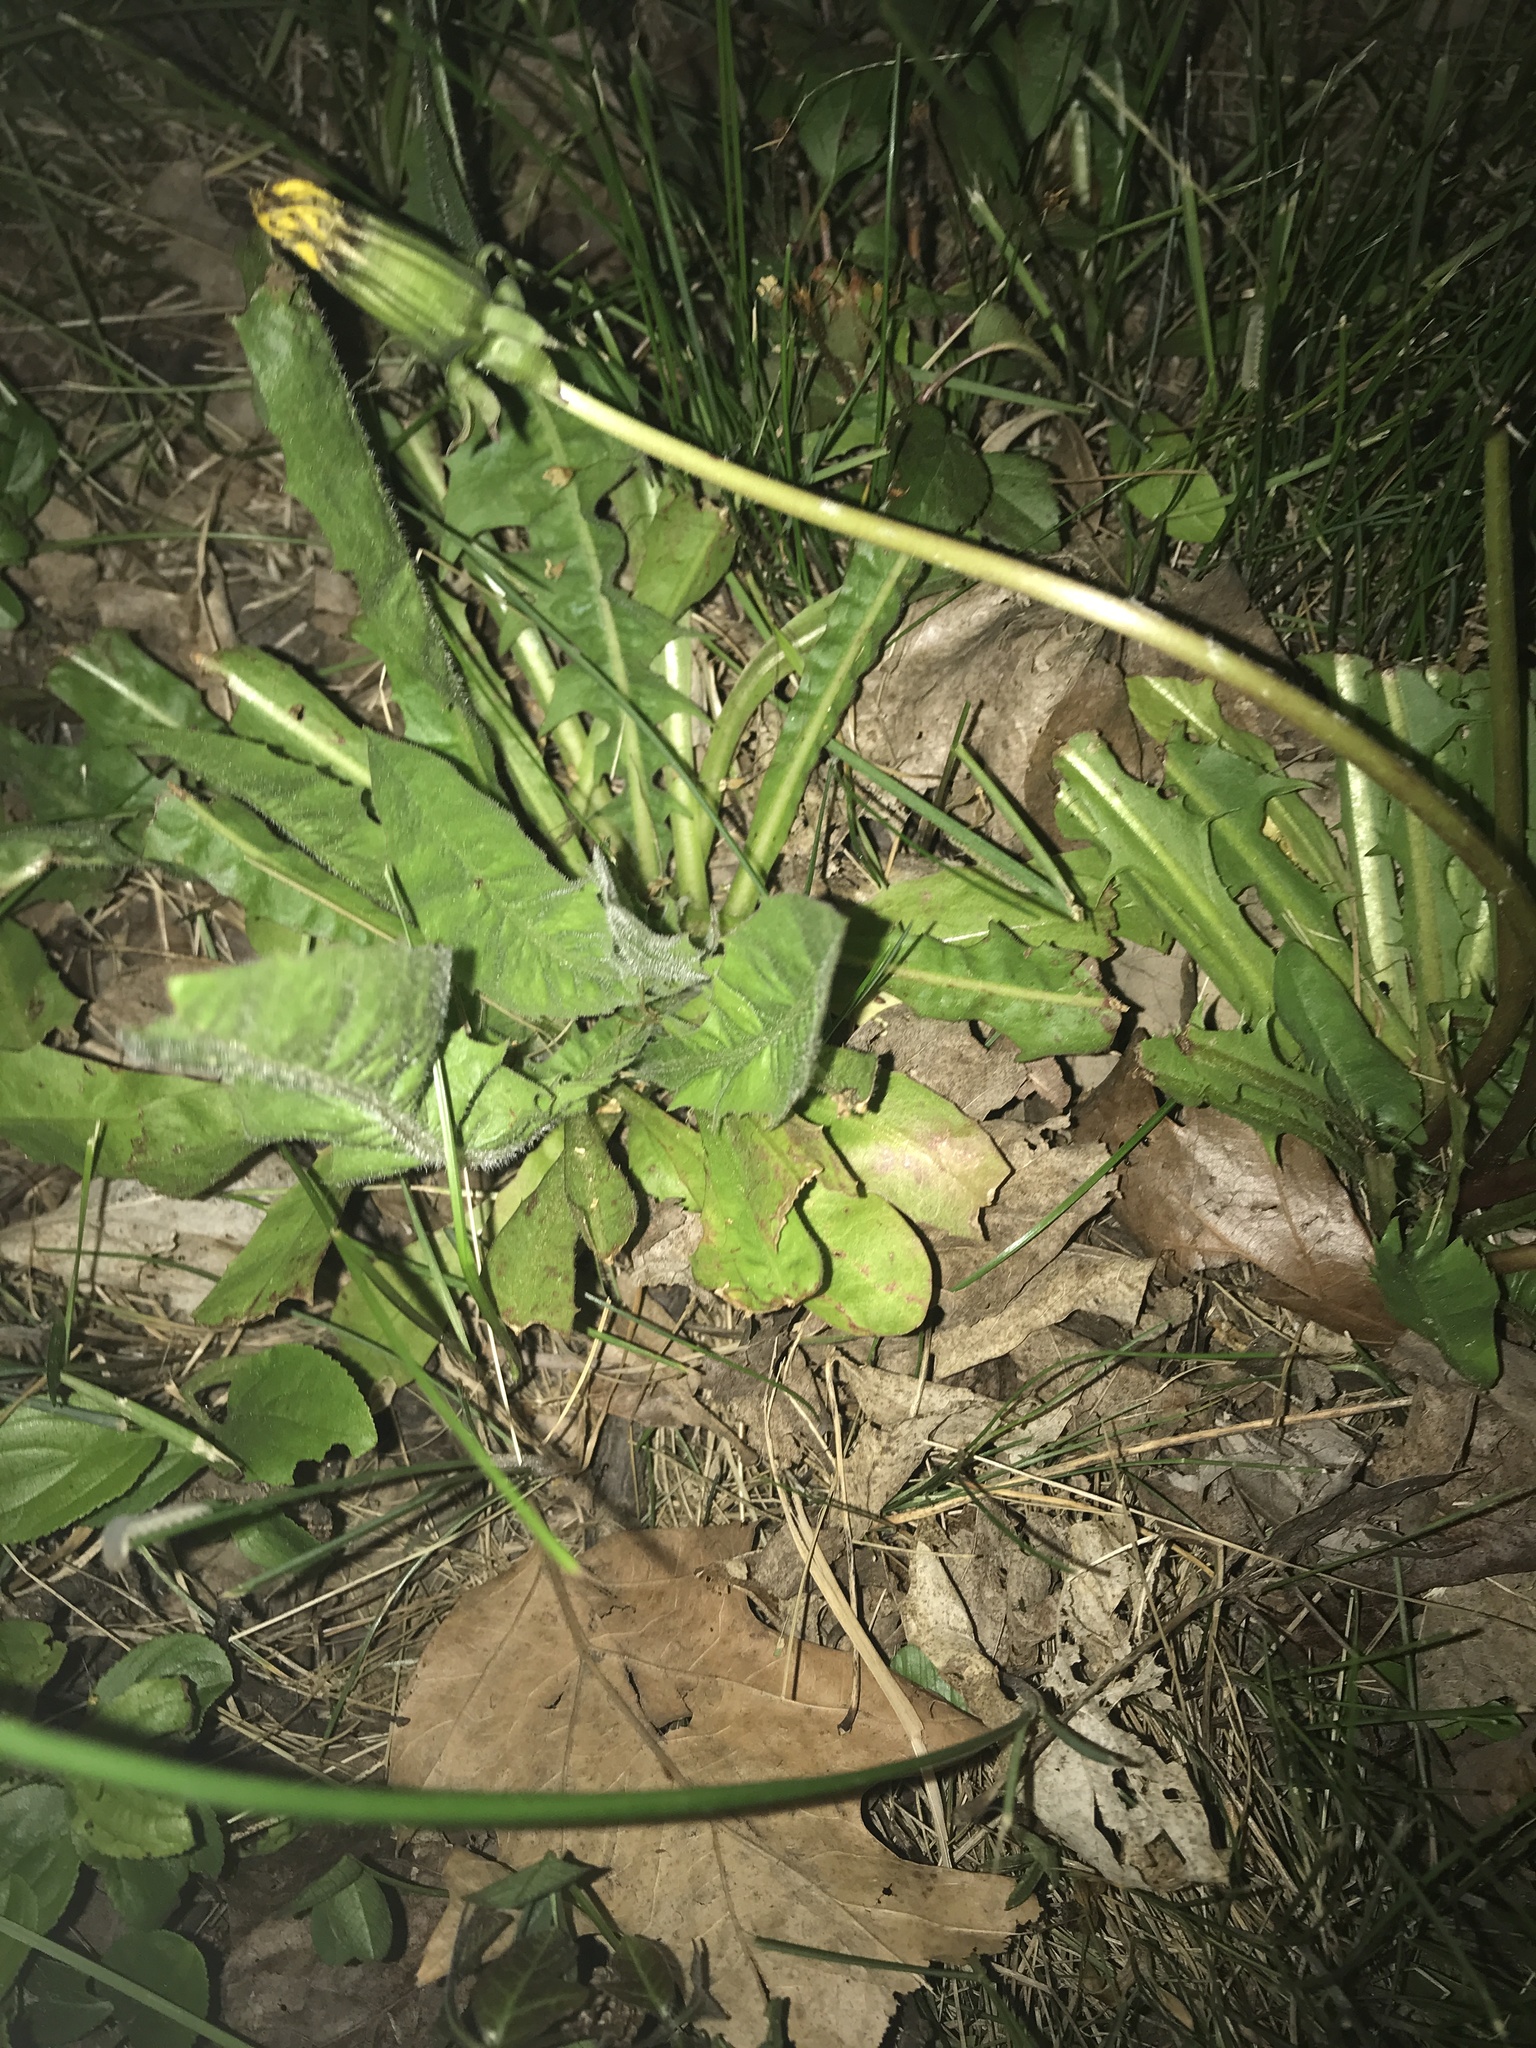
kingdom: Plantae
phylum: Tracheophyta
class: Magnoliopsida
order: Asterales
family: Asteraceae
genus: Taraxacum
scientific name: Taraxacum officinale
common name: Common dandelion
